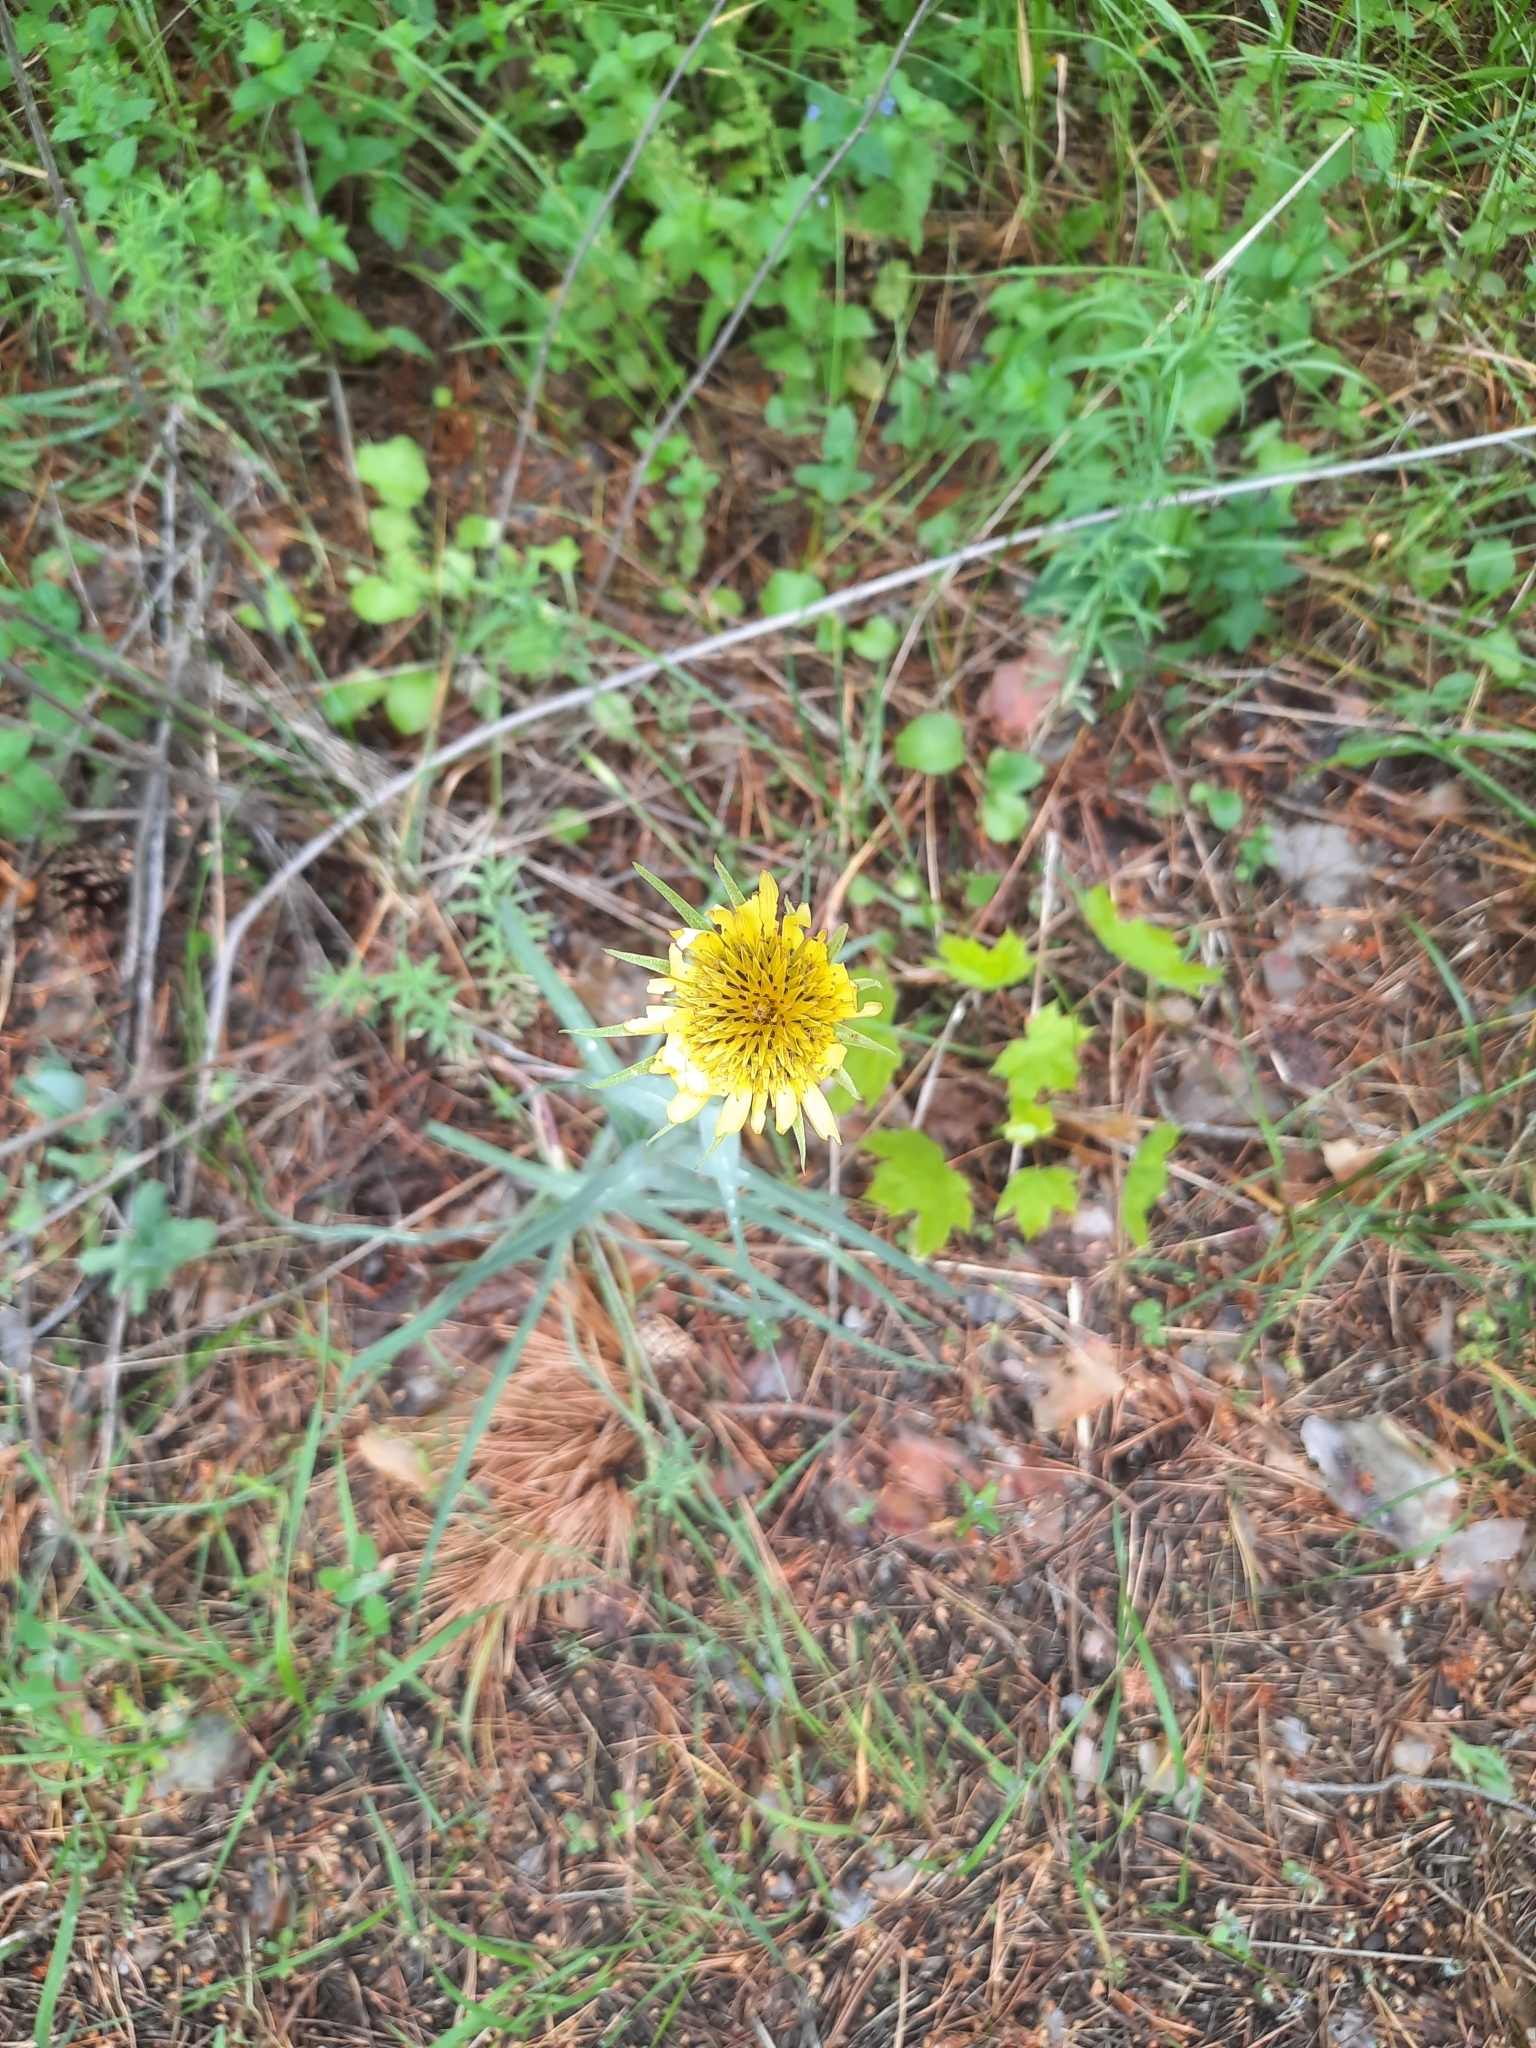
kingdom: Plantae
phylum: Tracheophyta
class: Magnoliopsida
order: Asterales
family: Asteraceae
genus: Tragopogon
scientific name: Tragopogon dubius
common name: Yellow salsify
